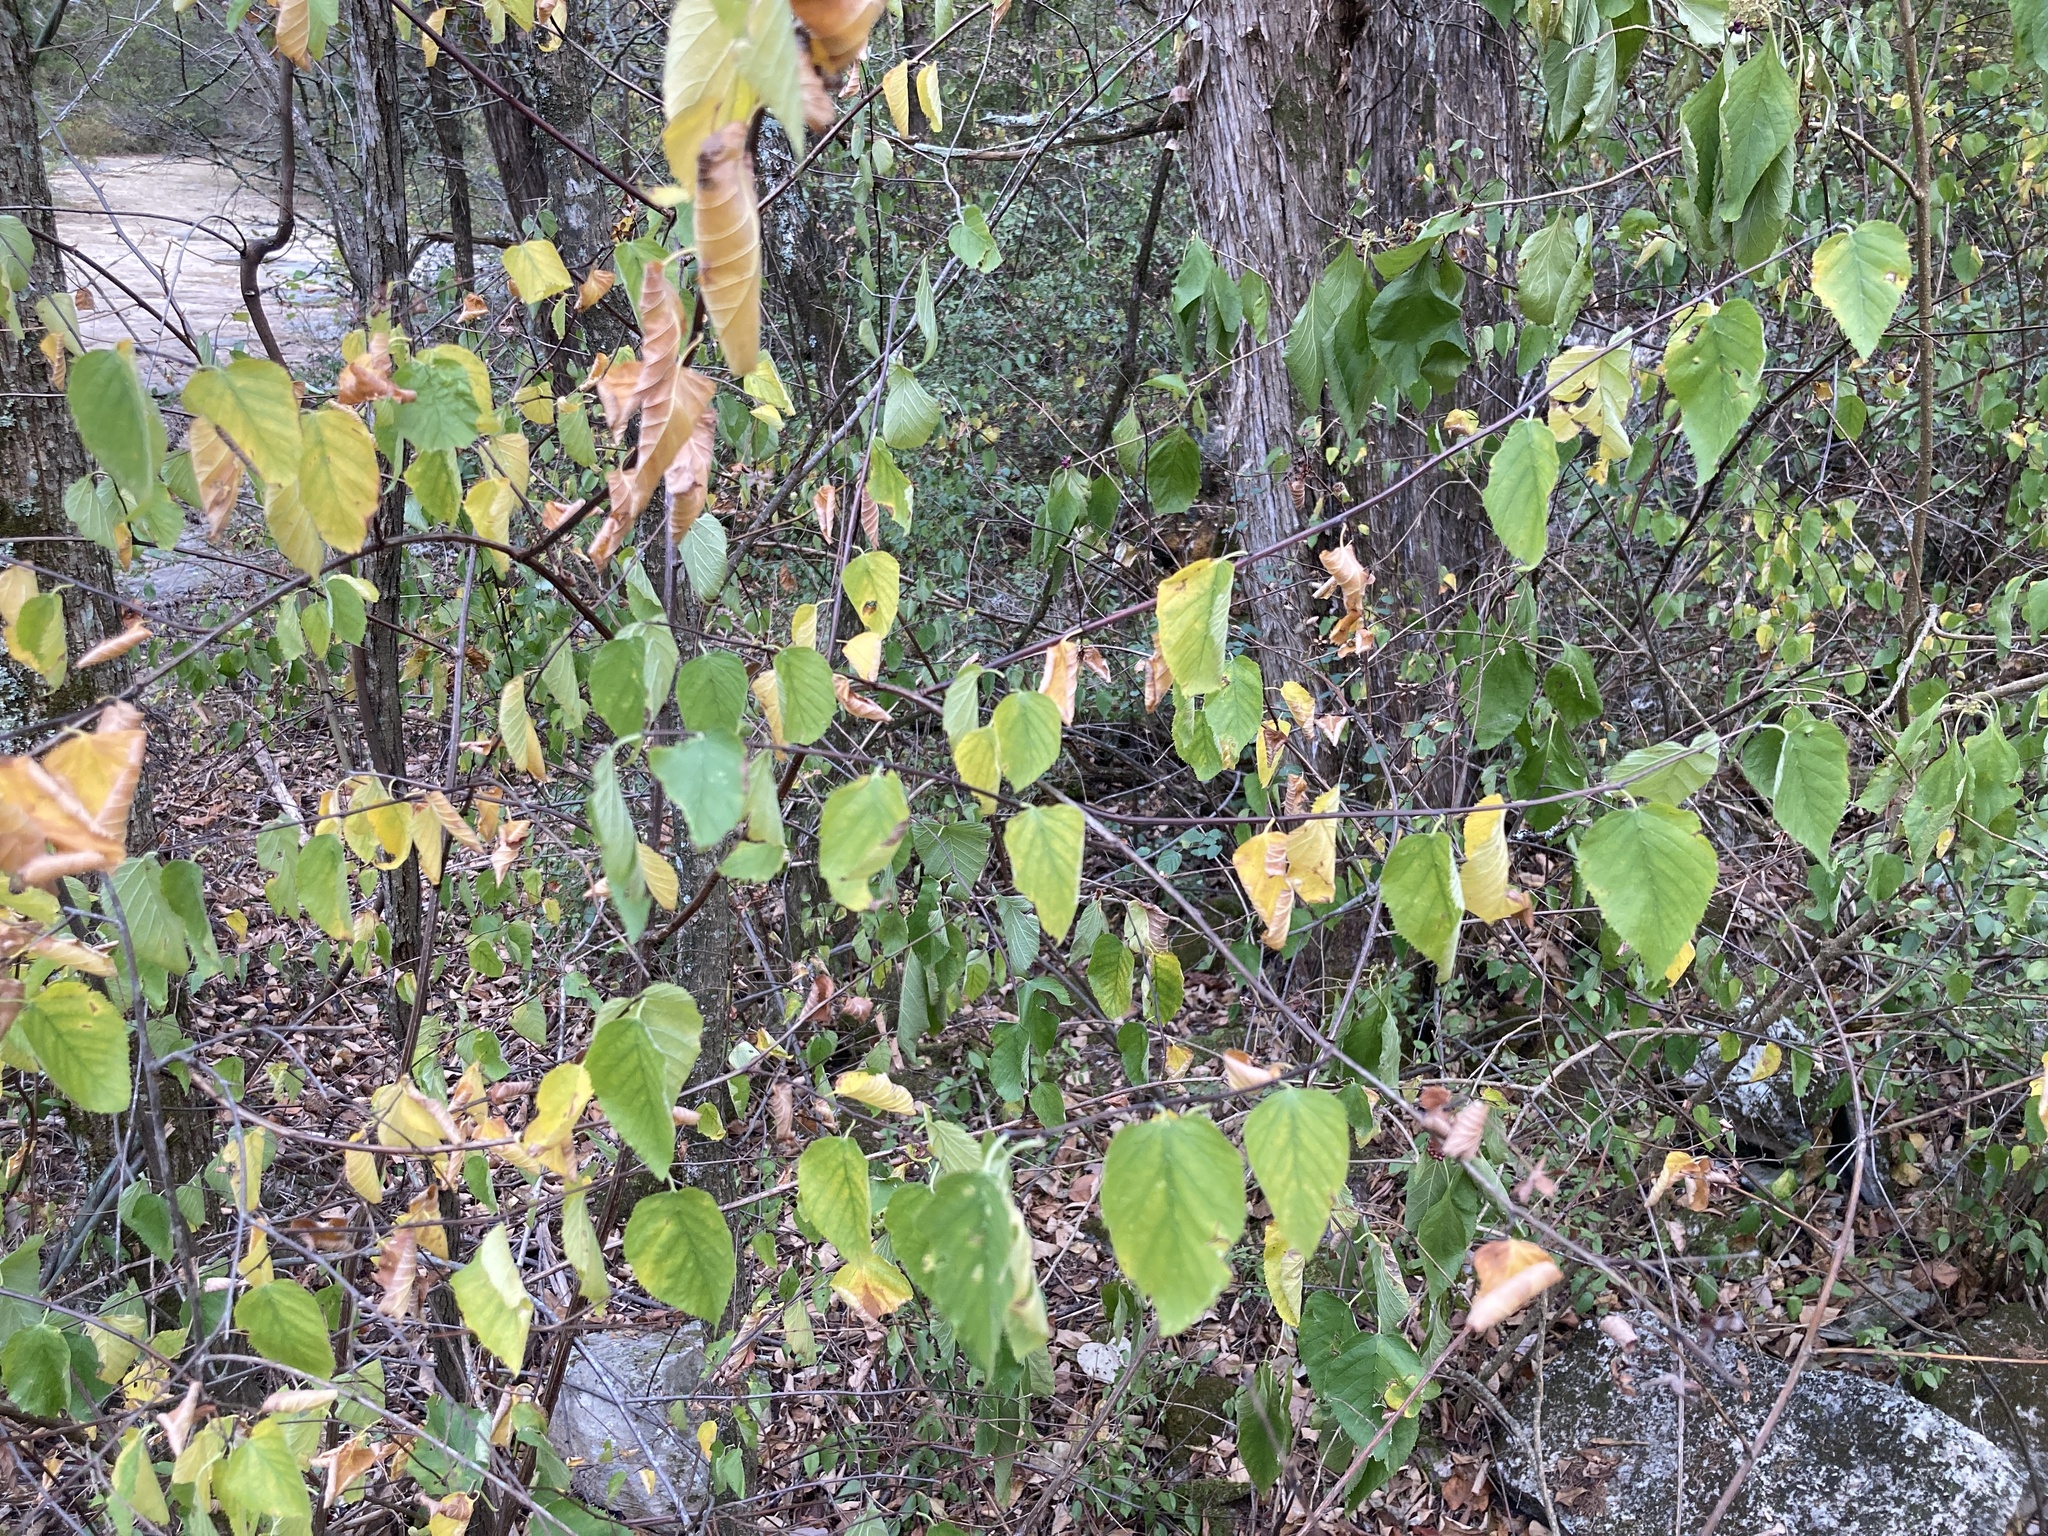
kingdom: Plantae
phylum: Tracheophyta
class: Magnoliopsida
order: Rosales
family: Rosaceae
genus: Neviusia
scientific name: Neviusia alabamensis
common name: Snow-wreath
